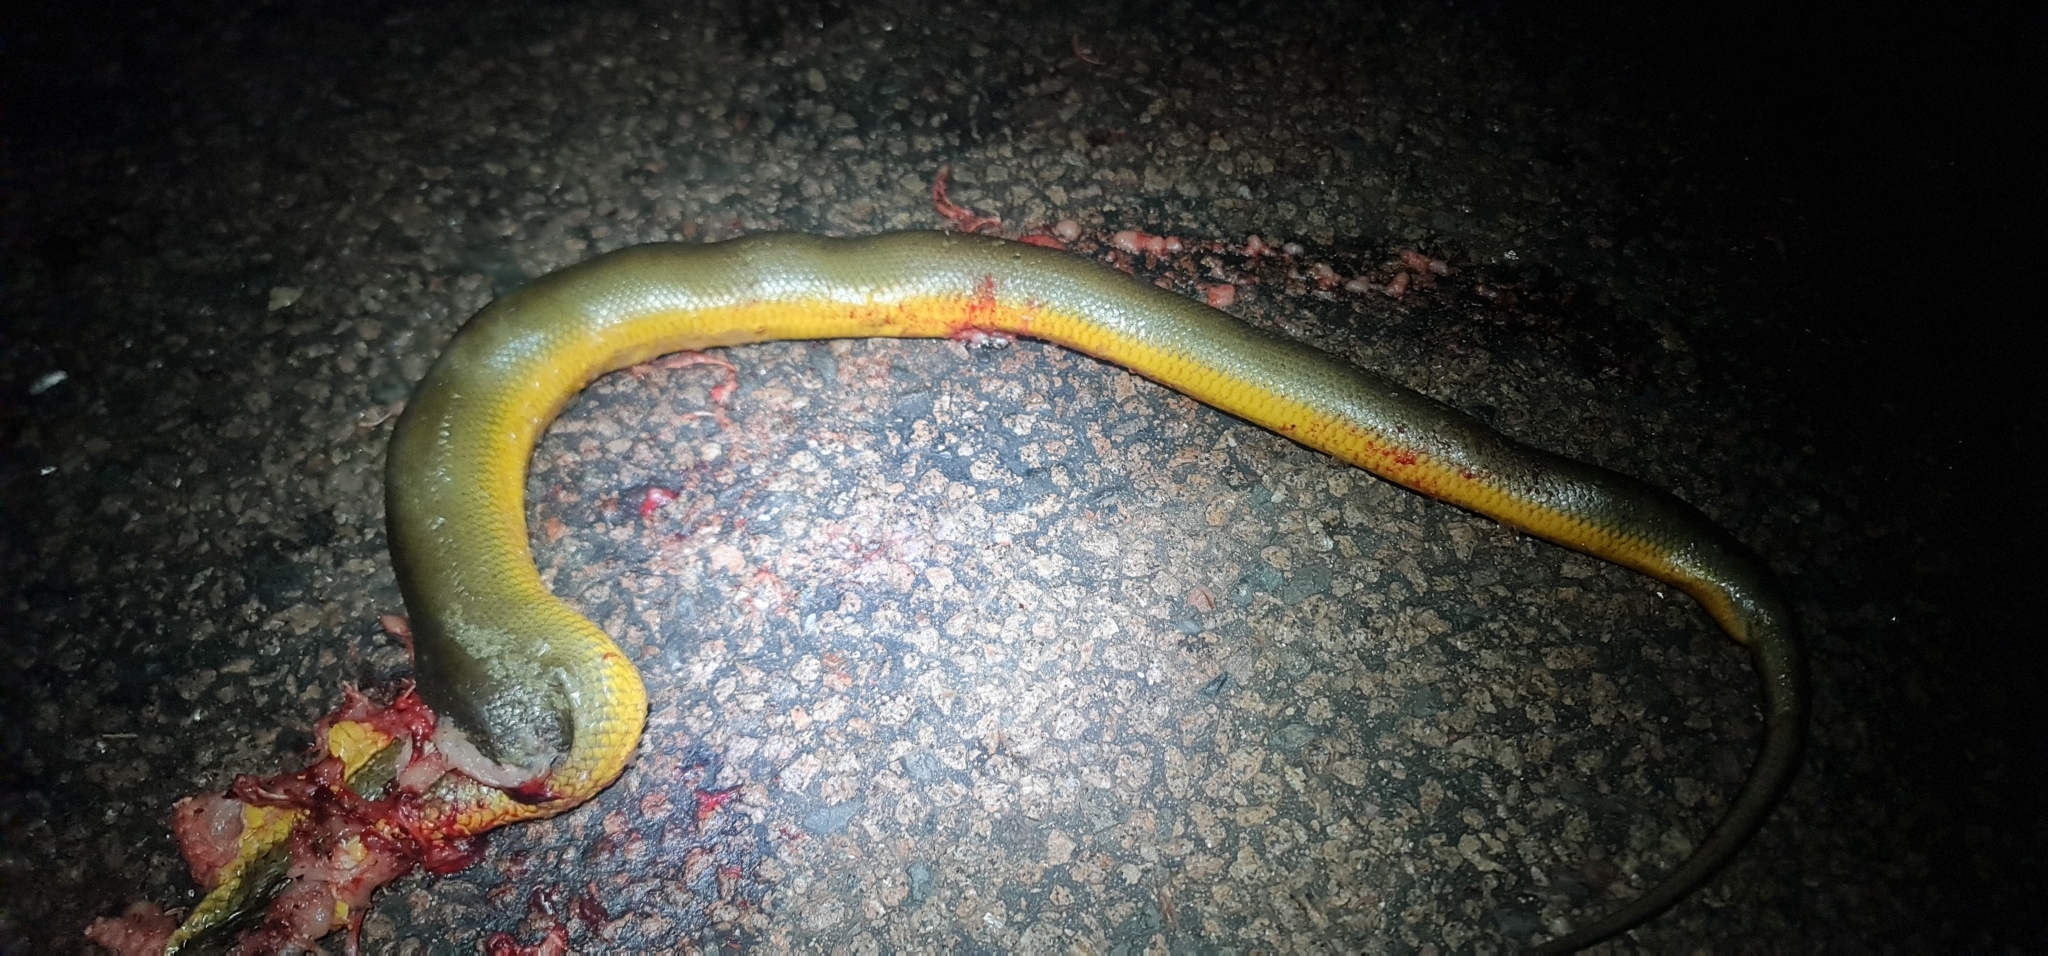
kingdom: Animalia
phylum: Chordata
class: Squamata
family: Pythonidae
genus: Liasis
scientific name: Liasis fuscus
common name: Brown water python
